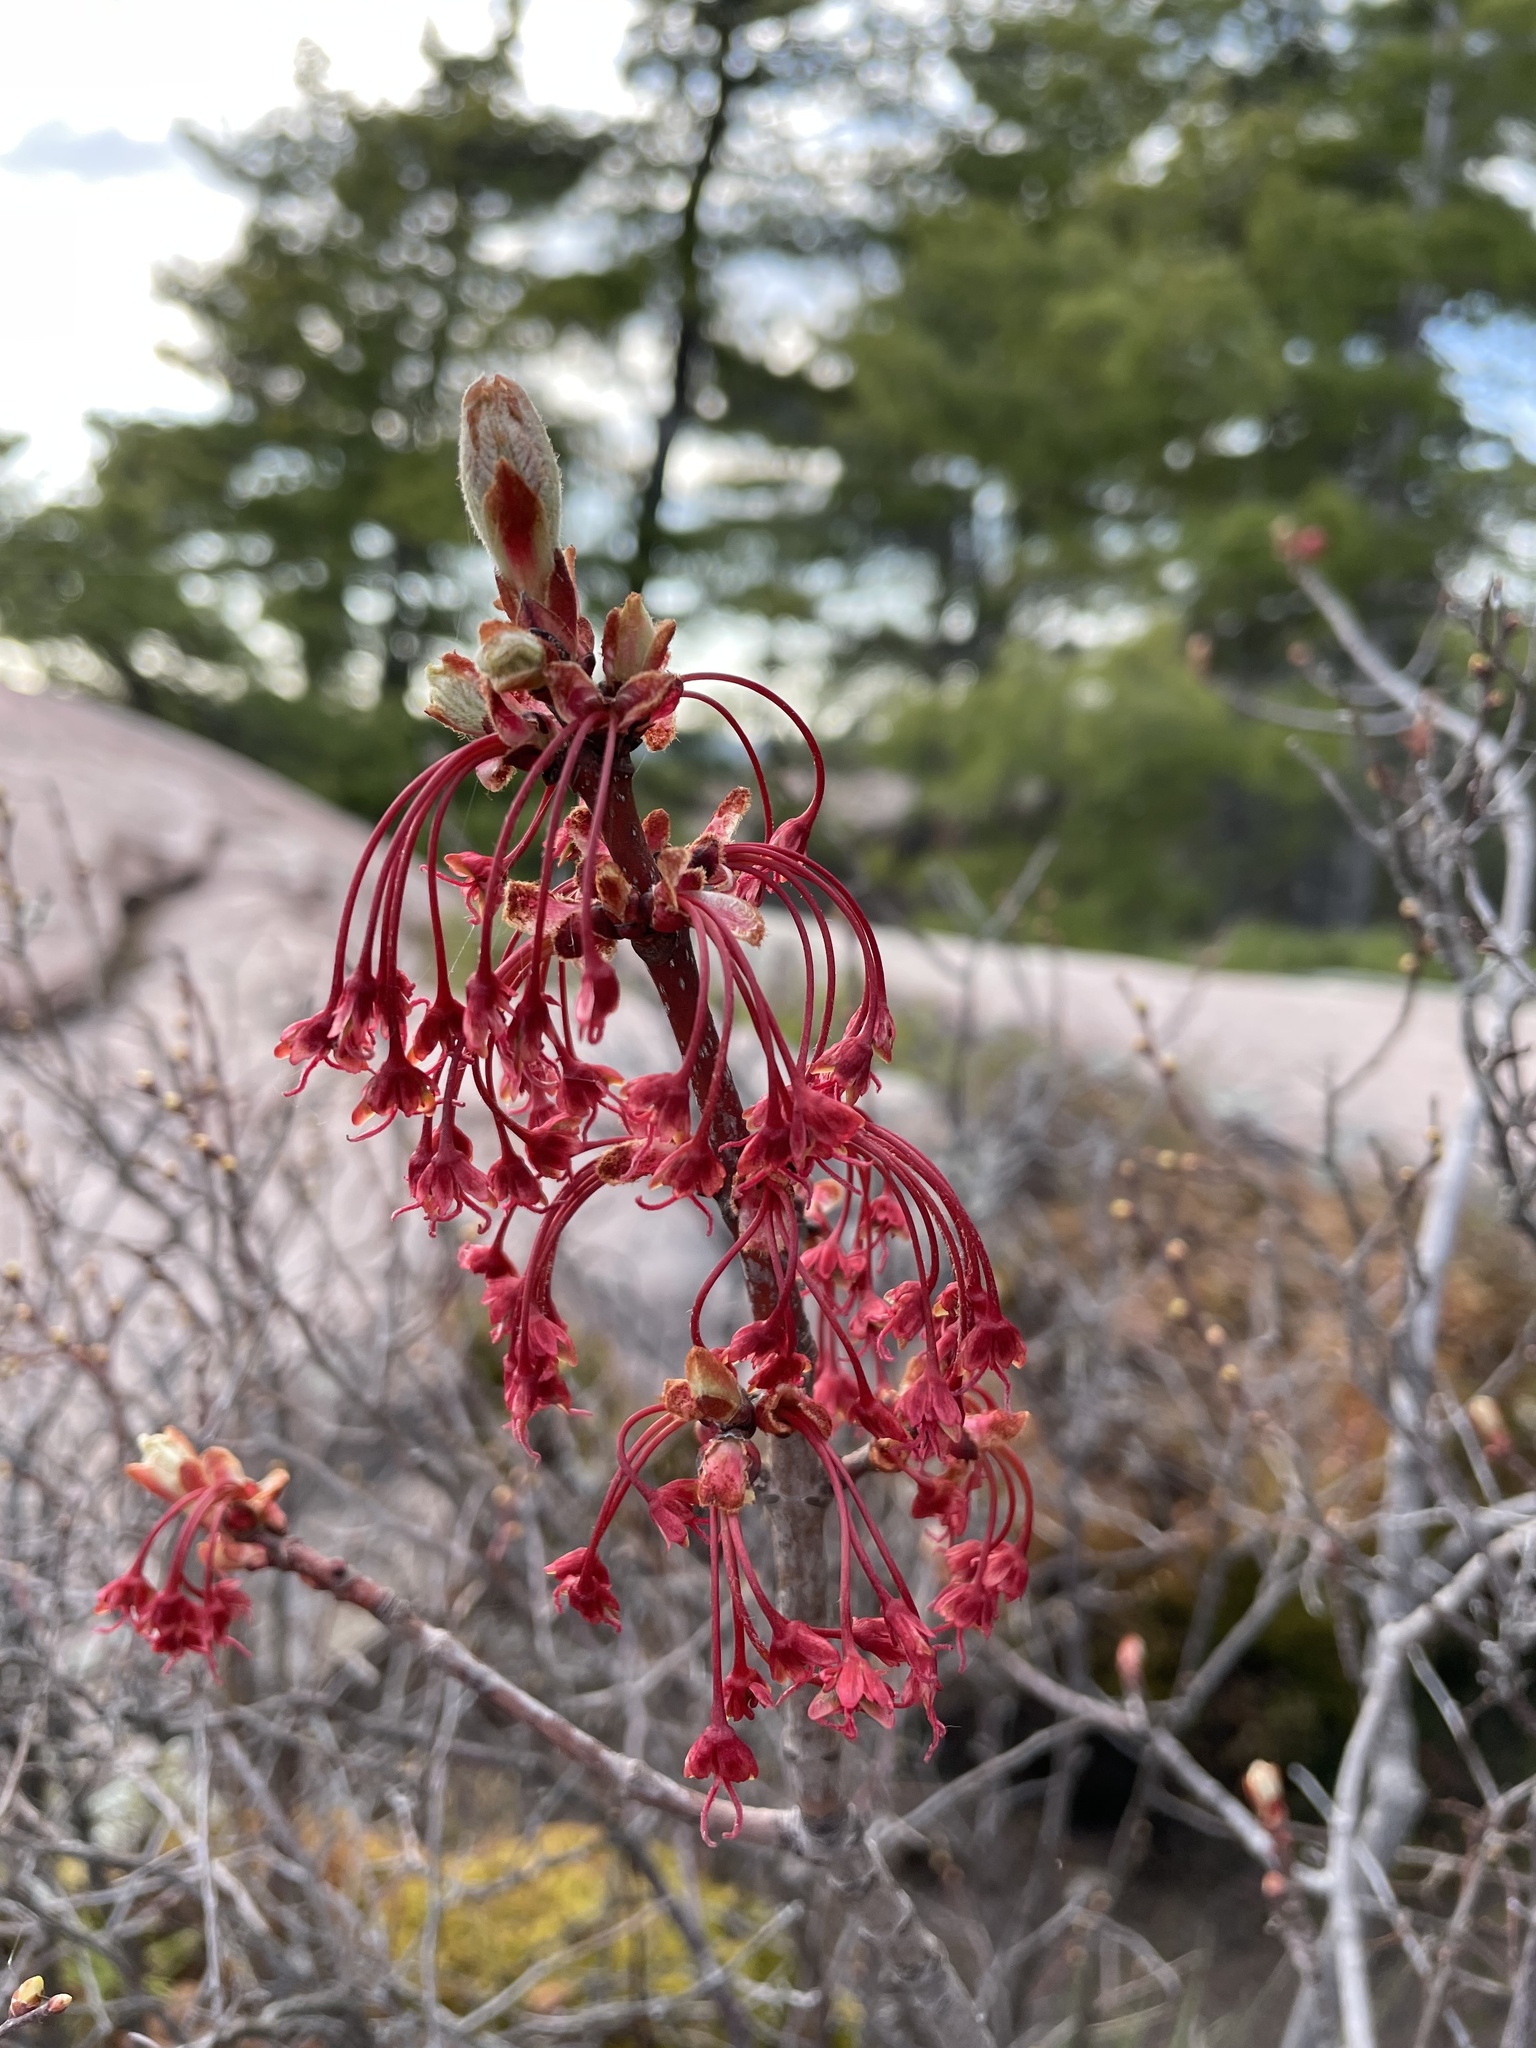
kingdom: Plantae
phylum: Tracheophyta
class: Magnoliopsida
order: Sapindales
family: Sapindaceae
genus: Acer
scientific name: Acer rubrum
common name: Red maple
